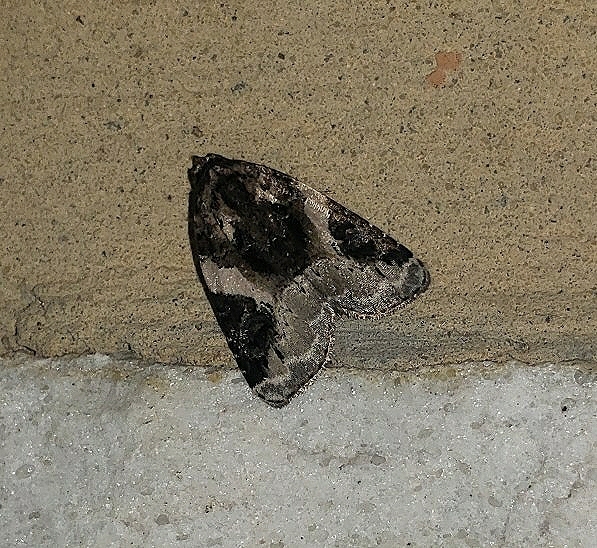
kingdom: Animalia
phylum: Arthropoda
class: Insecta
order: Lepidoptera
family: Noctuidae
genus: Pseudeustrotia
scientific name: Pseudeustrotia carneola
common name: Pink-barred lithacodia moth
